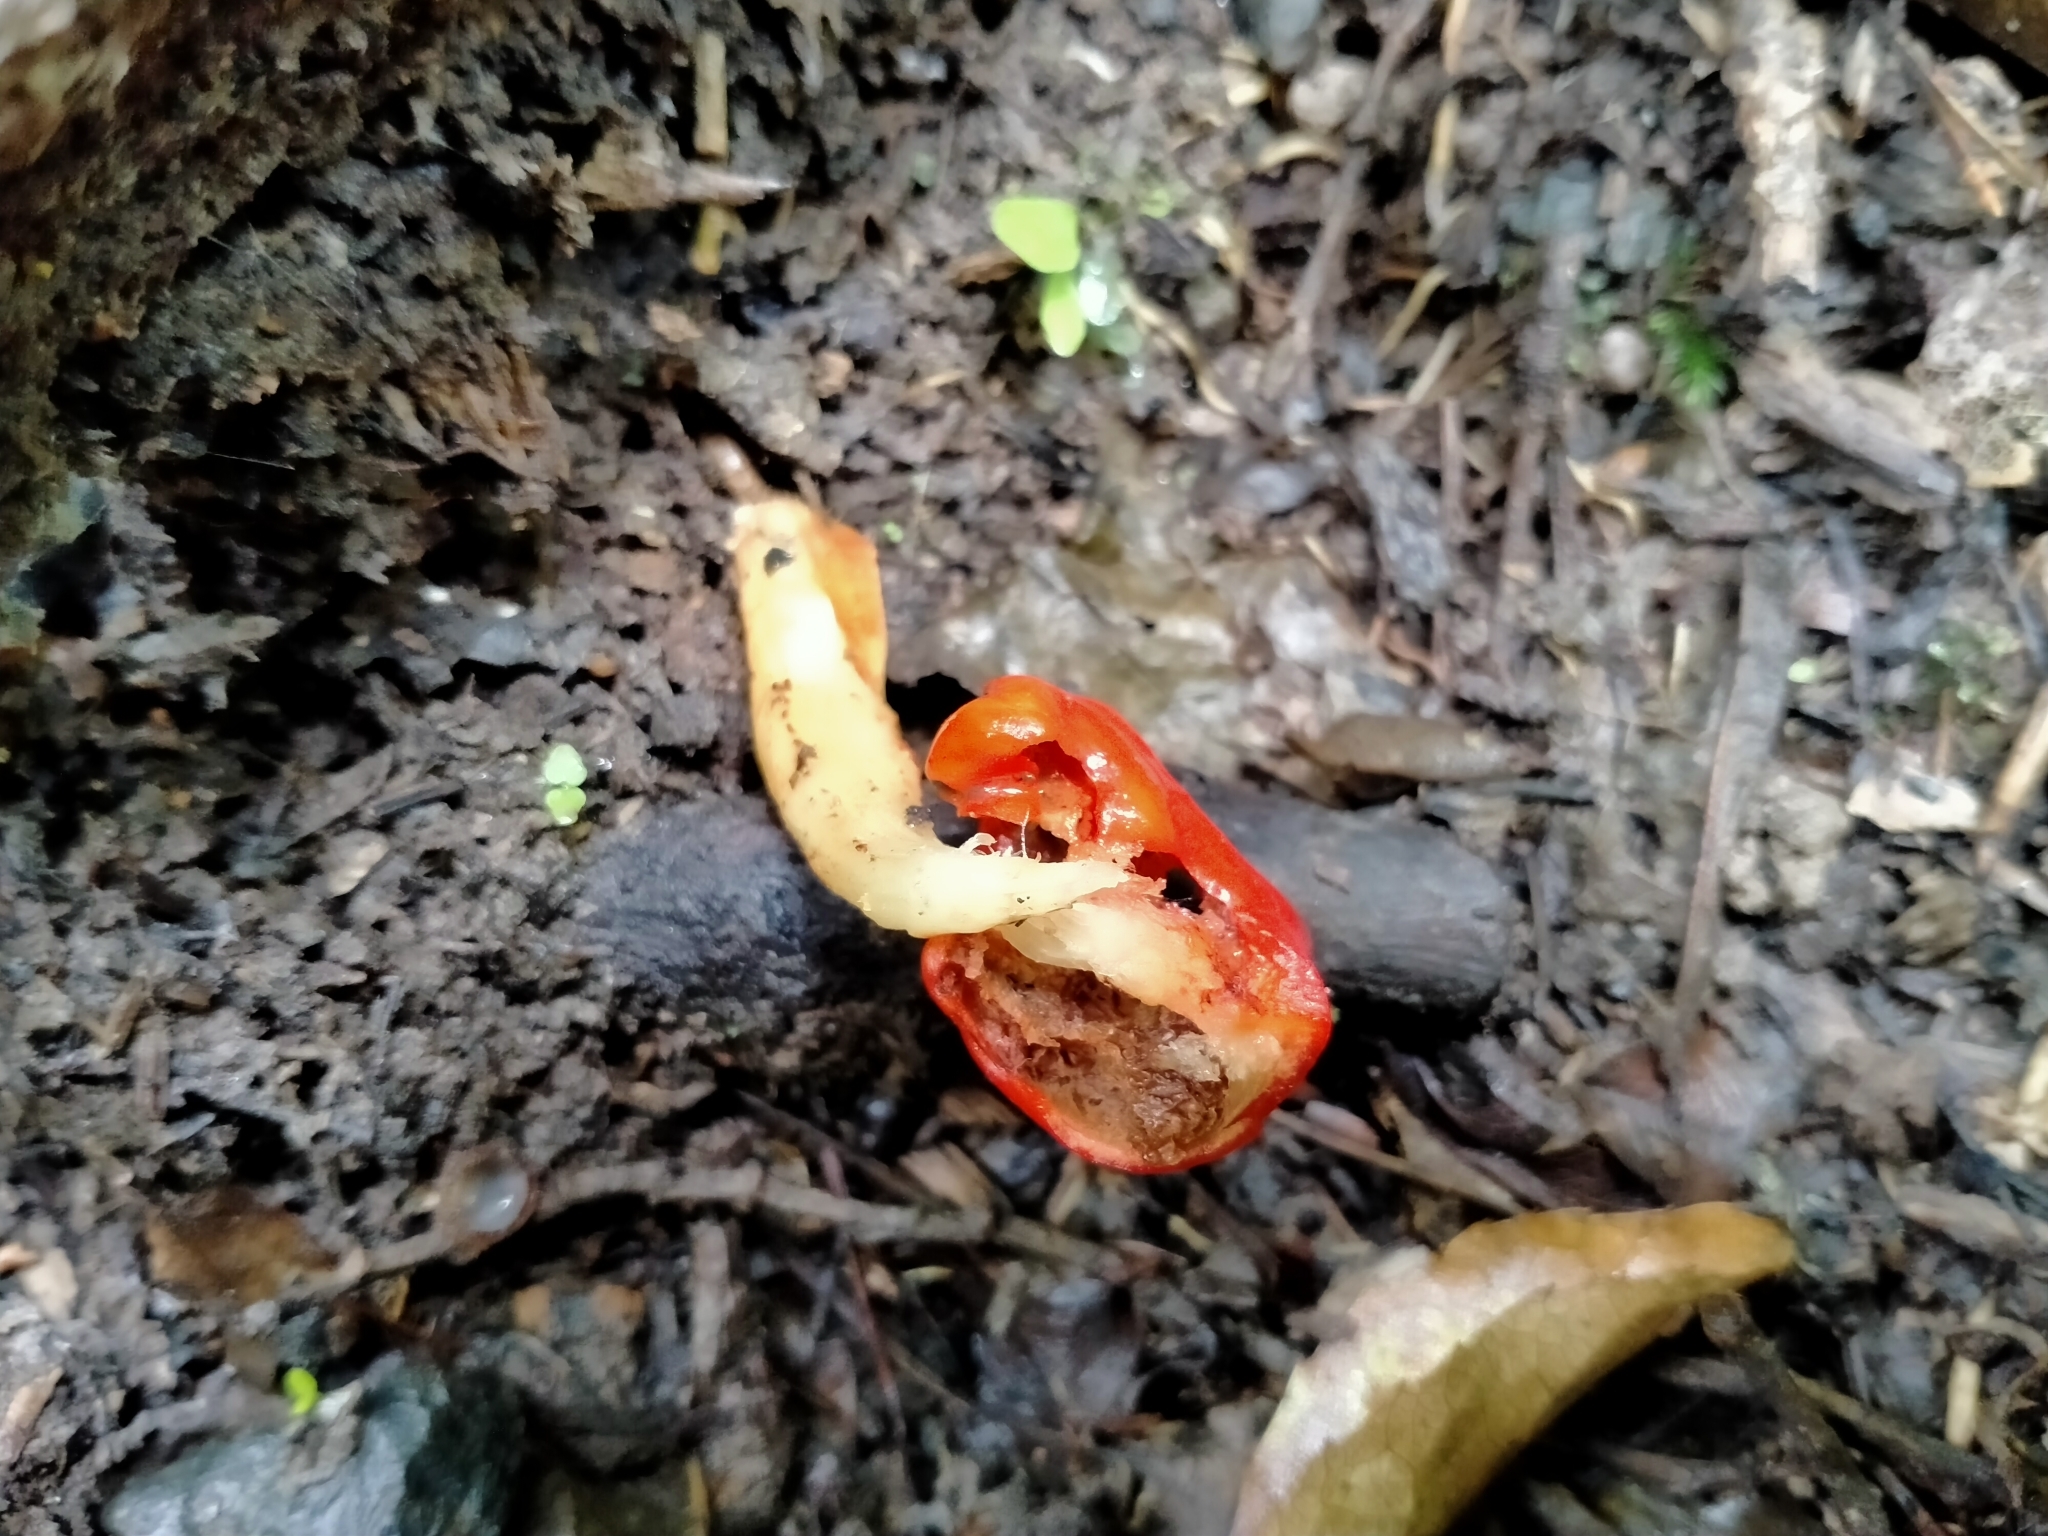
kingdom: Fungi
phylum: Basidiomycota
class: Agaricomycetes
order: Agaricales
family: Strophariaceae
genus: Leratiomyces
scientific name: Leratiomyces erythrocephalus
